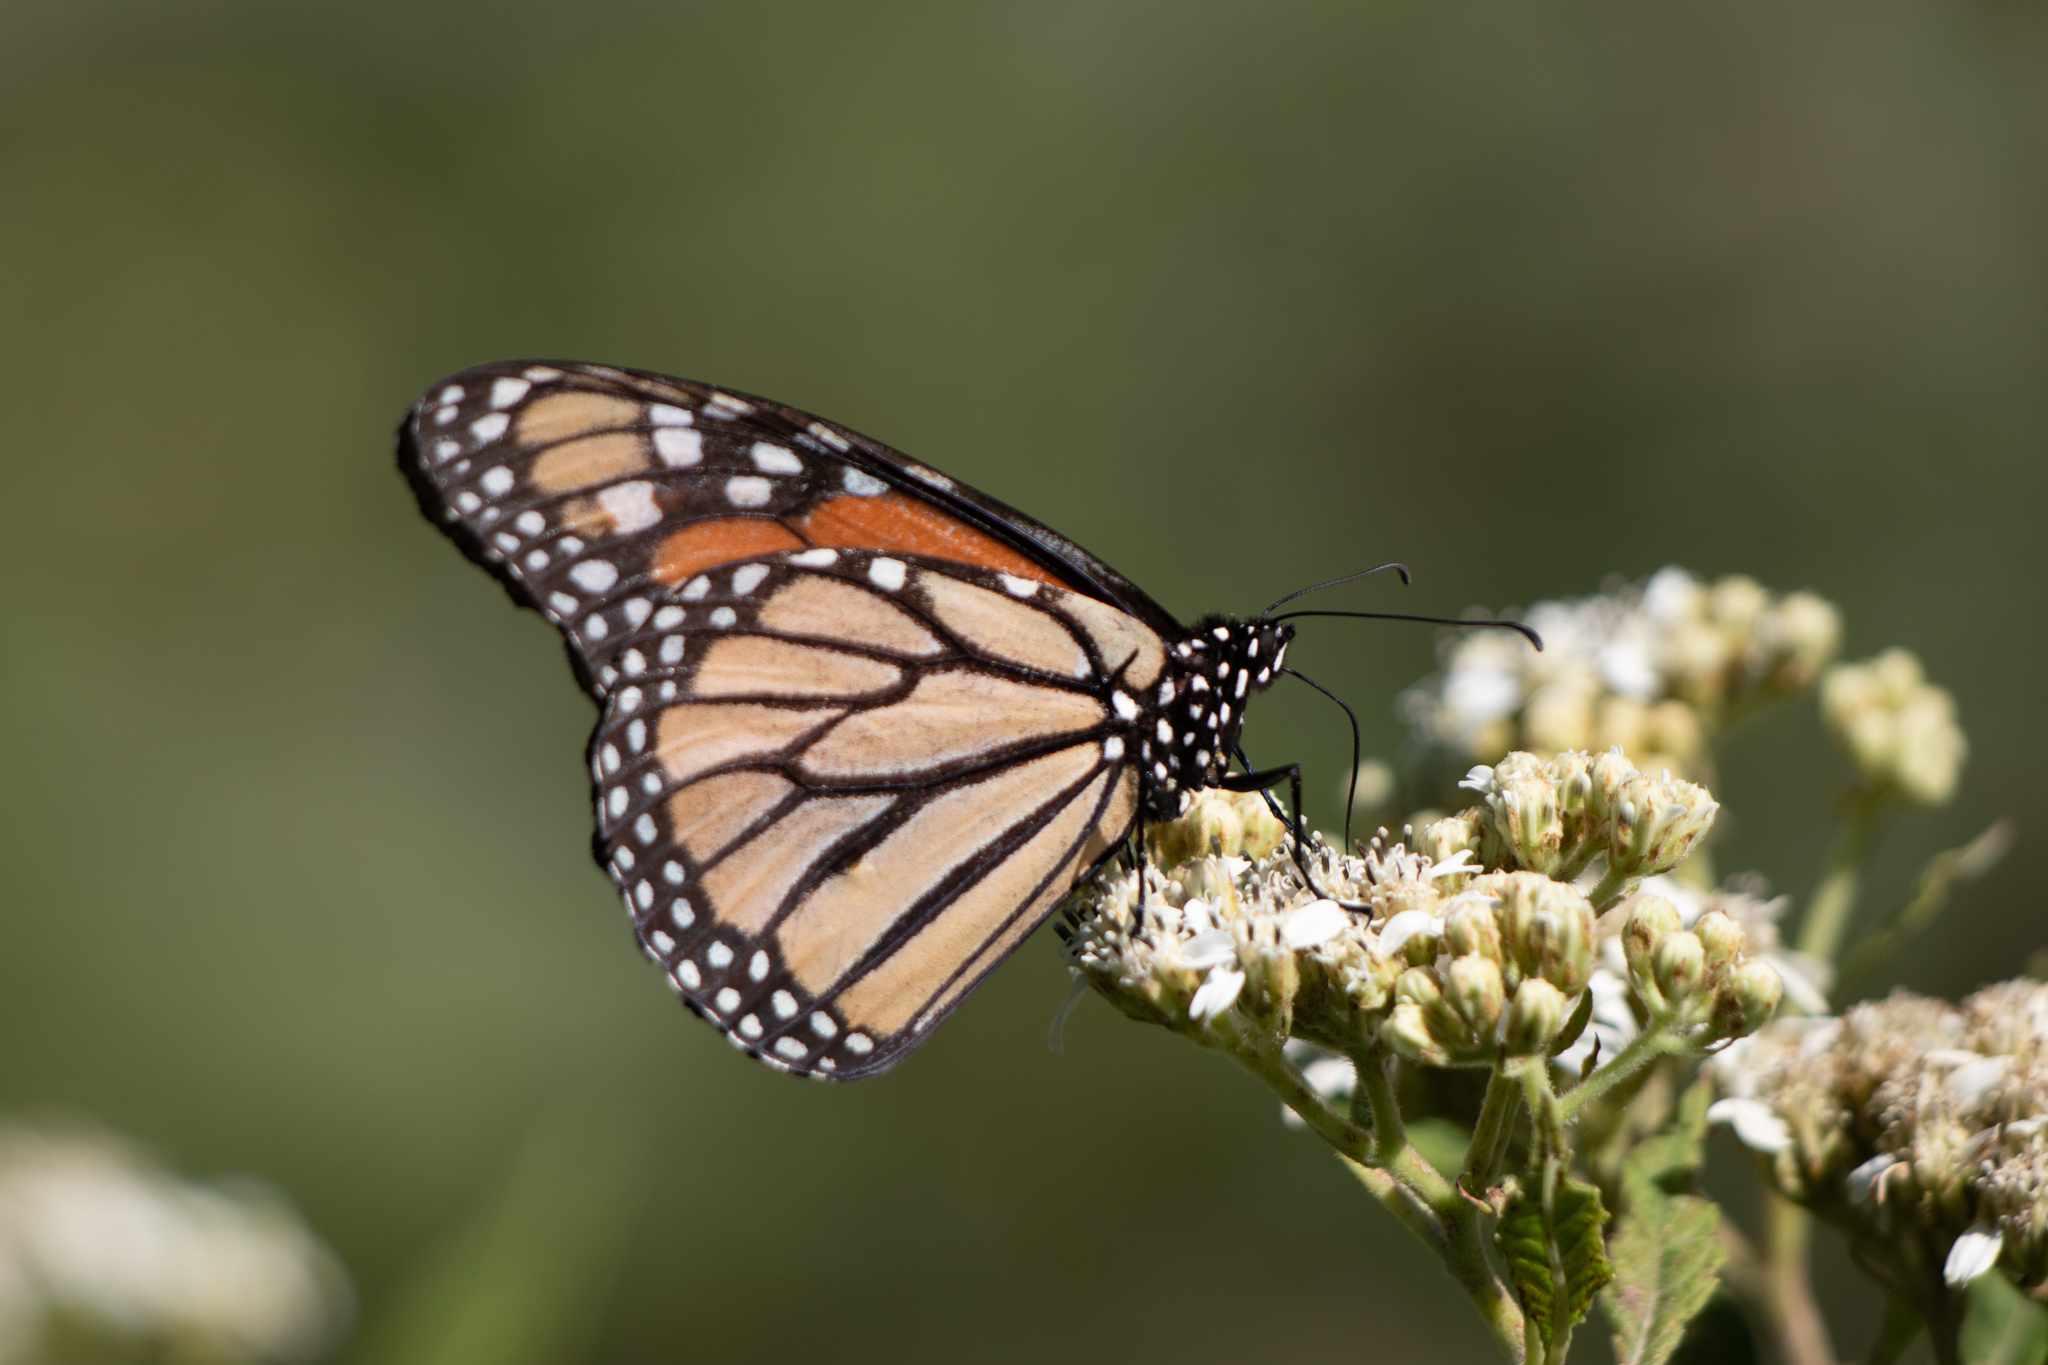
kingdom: Animalia
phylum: Arthropoda
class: Insecta
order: Lepidoptera
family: Nymphalidae
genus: Danaus
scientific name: Danaus plexippus
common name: Monarch
